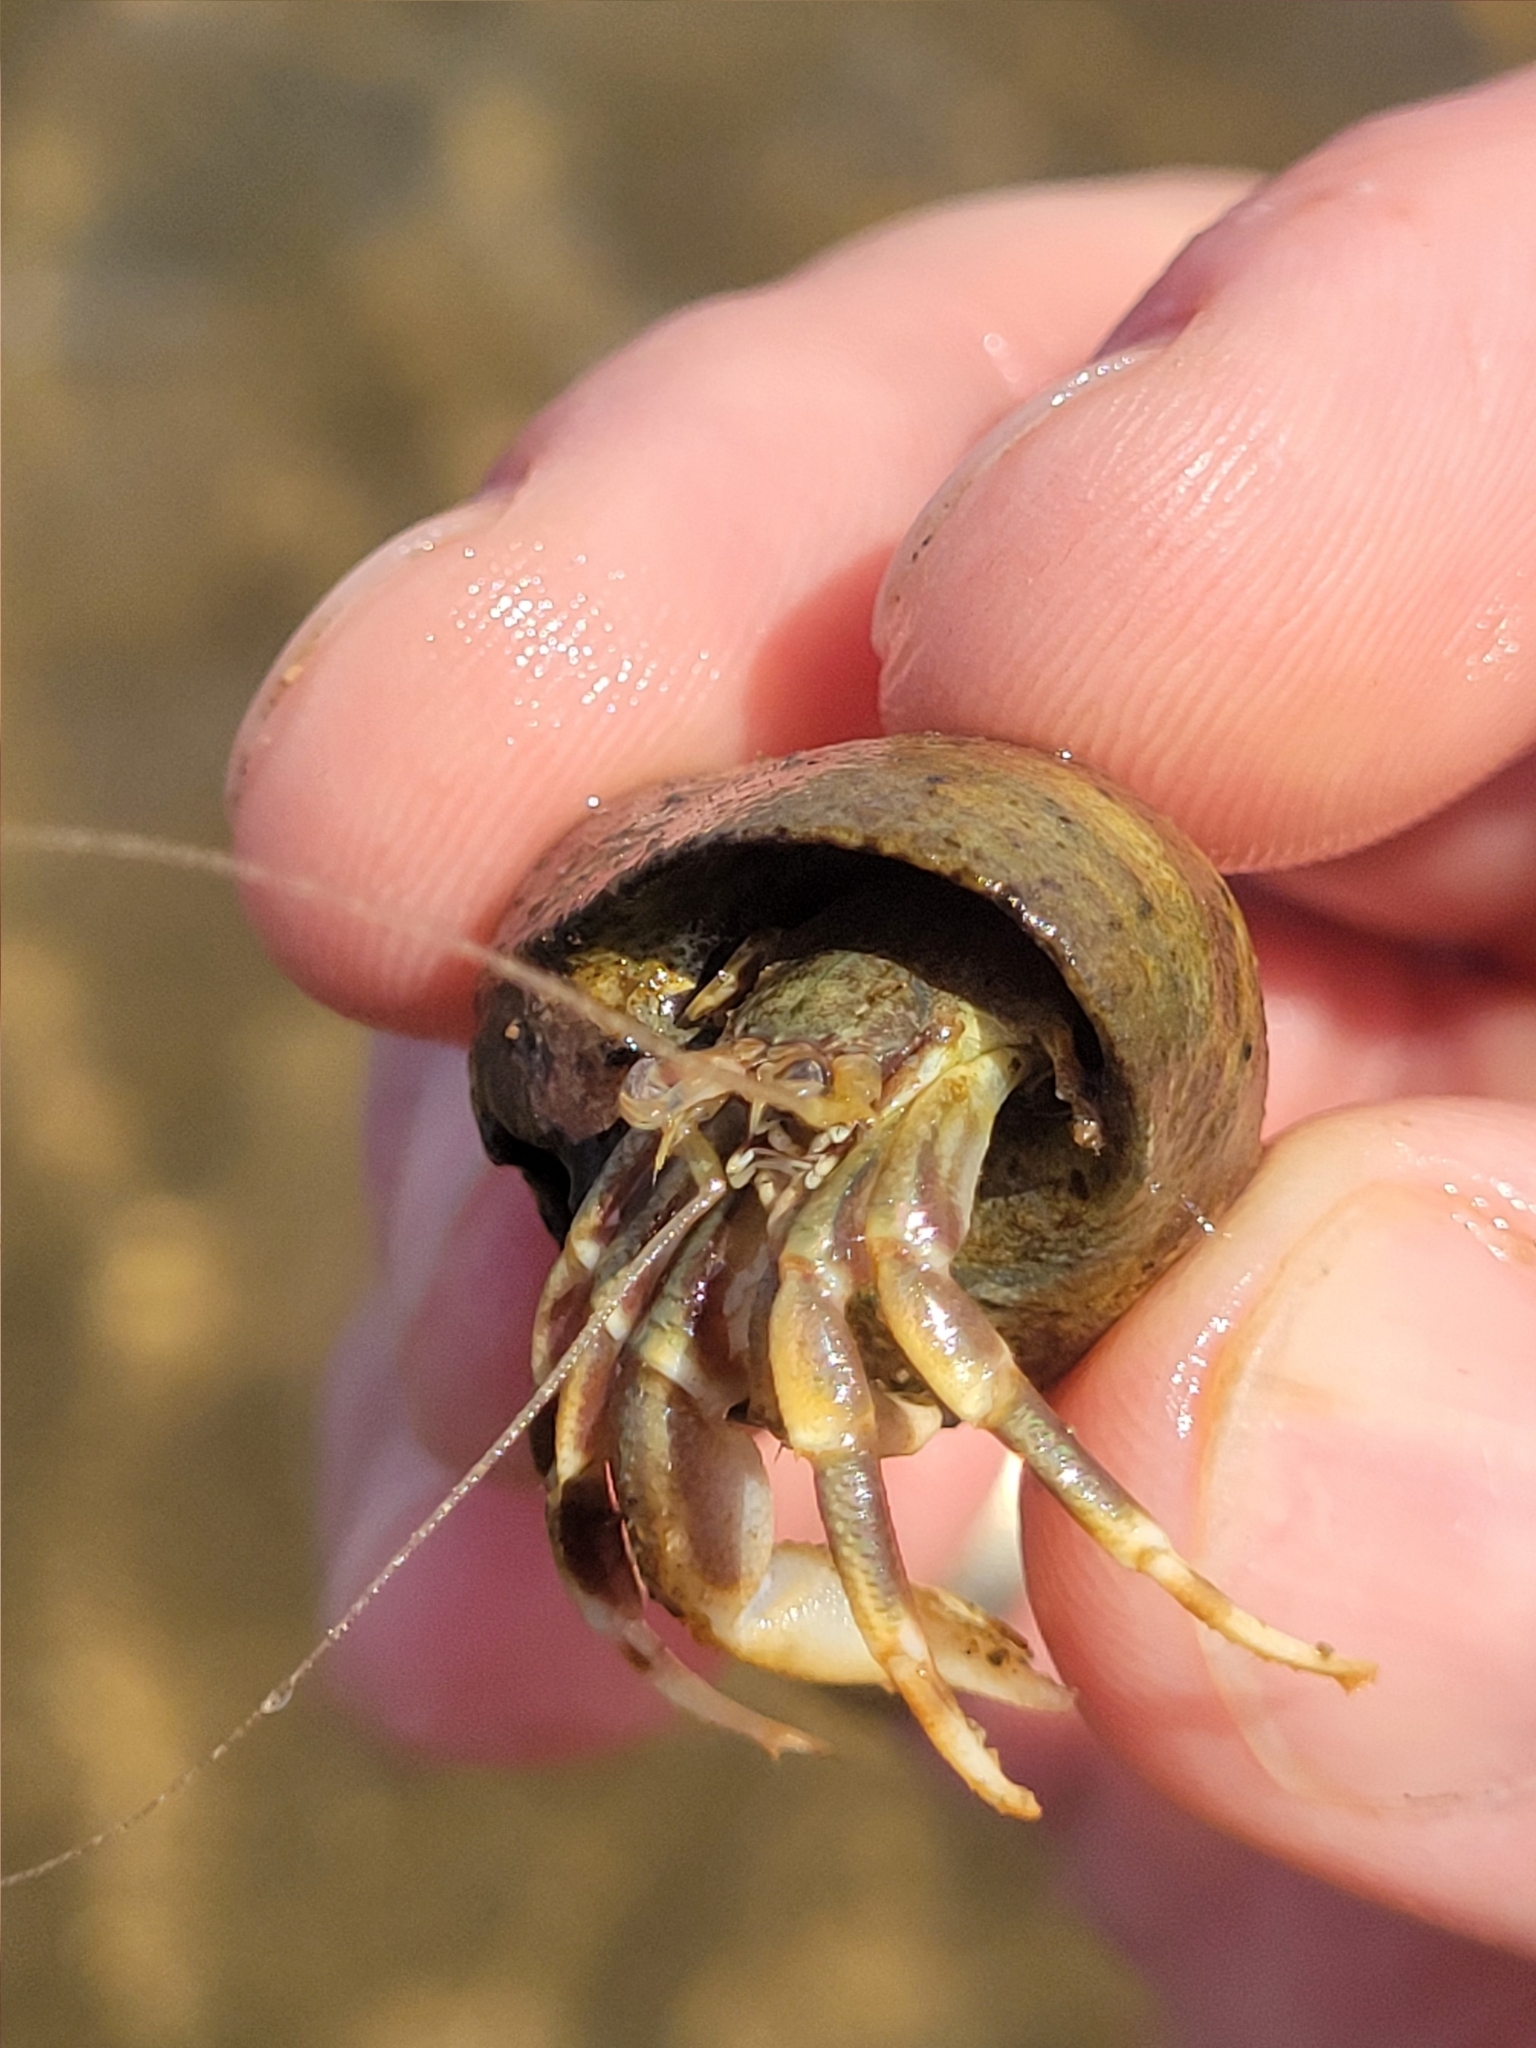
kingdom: Animalia
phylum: Arthropoda
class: Malacostraca
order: Decapoda
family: Paguridae
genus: Pagurus
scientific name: Pagurus longicarpus
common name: Long-armed hermit crab
